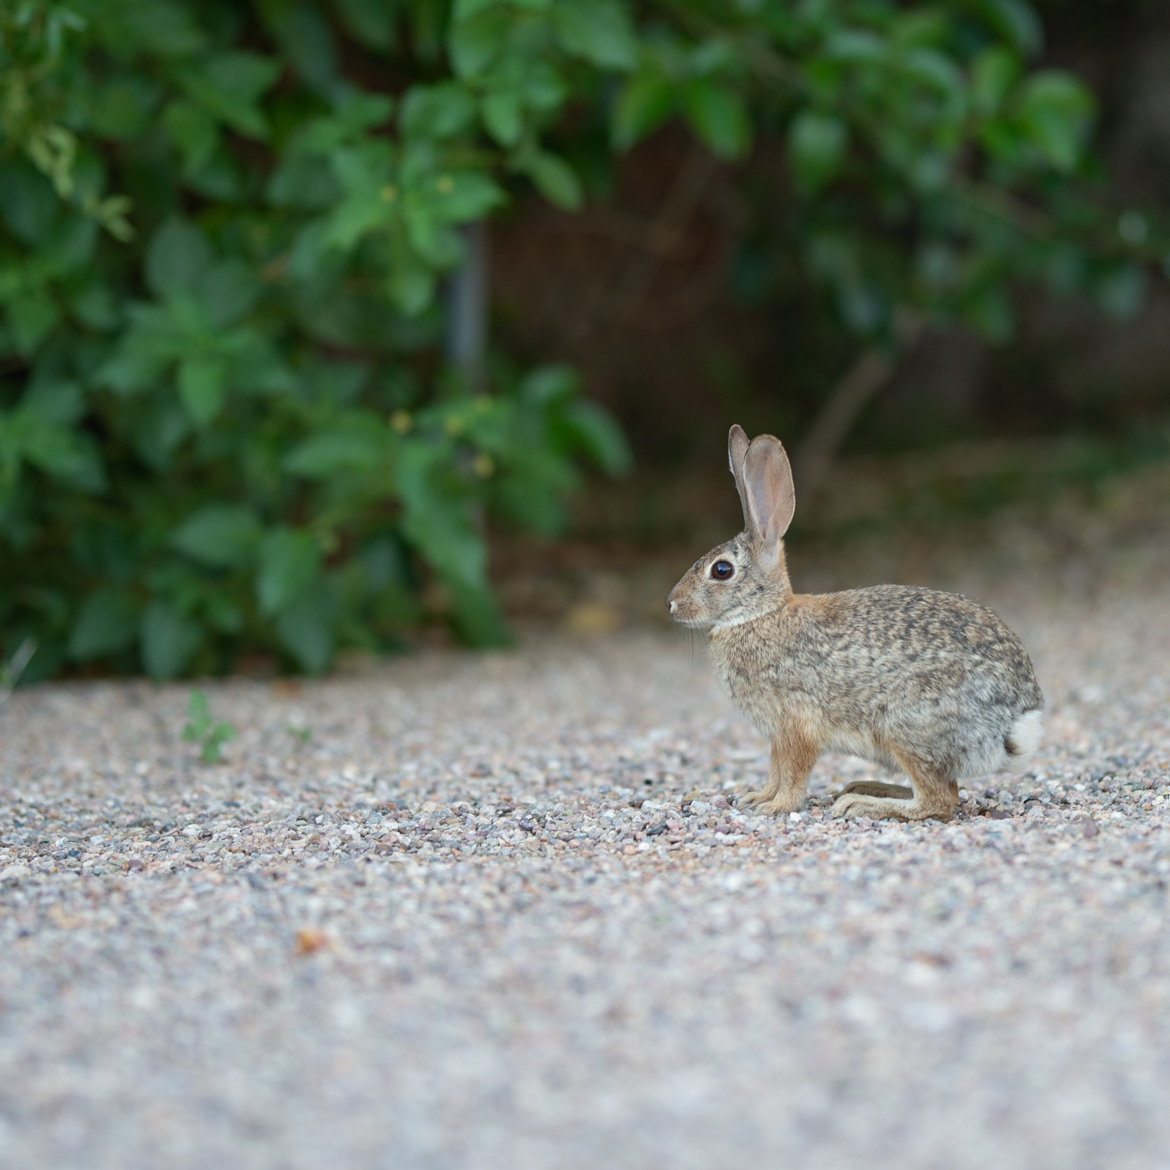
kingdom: Animalia
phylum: Chordata
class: Mammalia
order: Lagomorpha
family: Leporidae
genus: Sylvilagus
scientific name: Sylvilagus audubonii
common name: Desert cottontail
